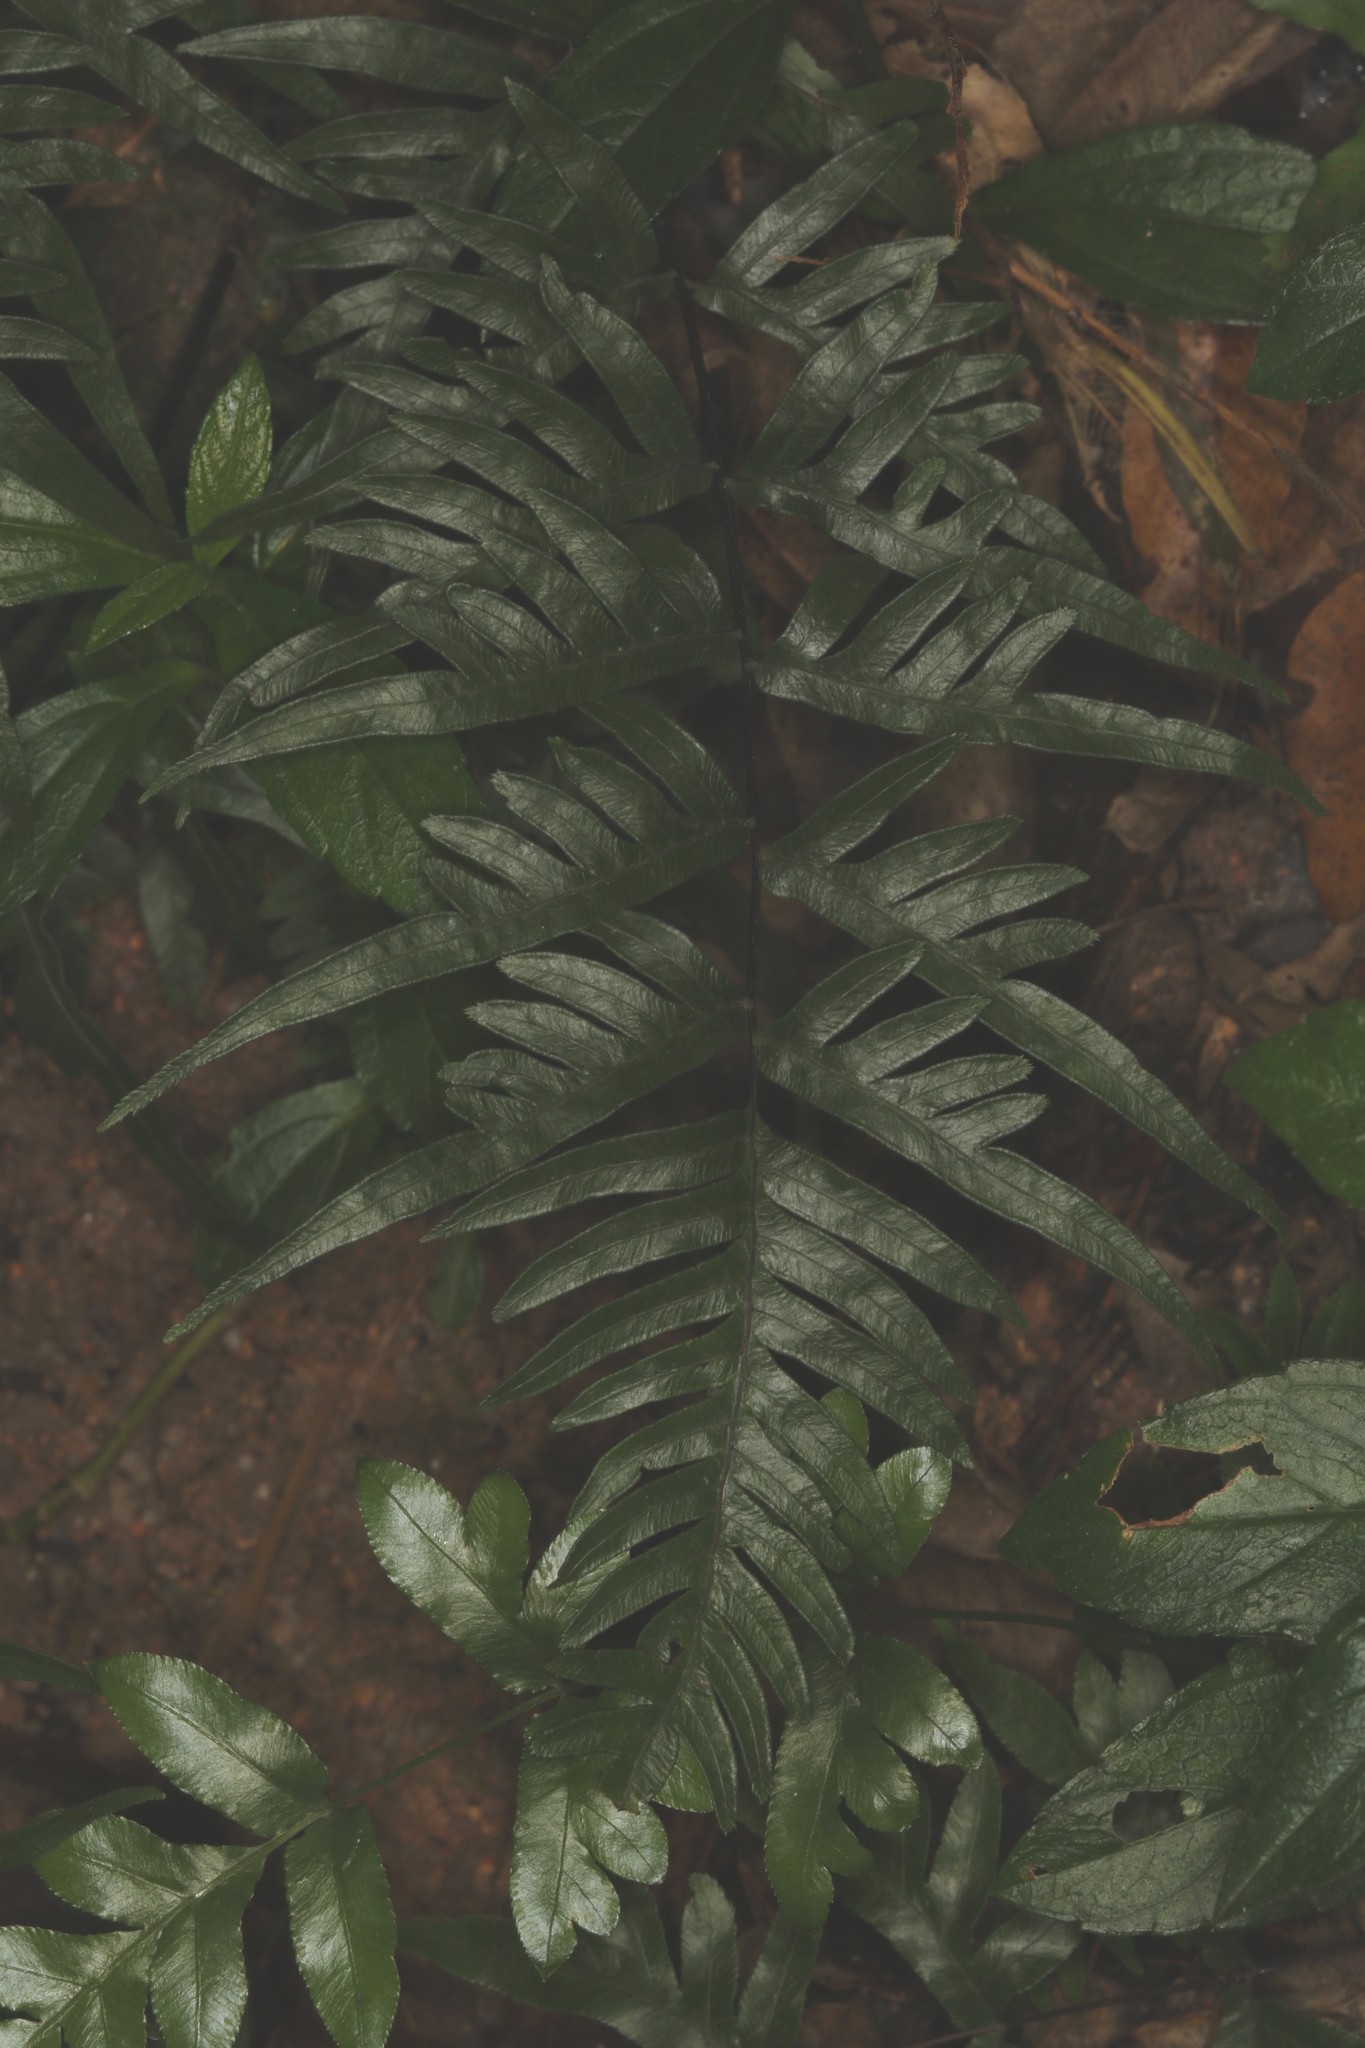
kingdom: Plantae
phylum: Tracheophyta
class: Polypodiopsida
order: Polypodiales
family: Pteridaceae
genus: Pteris
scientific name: Pteris semipinnata
